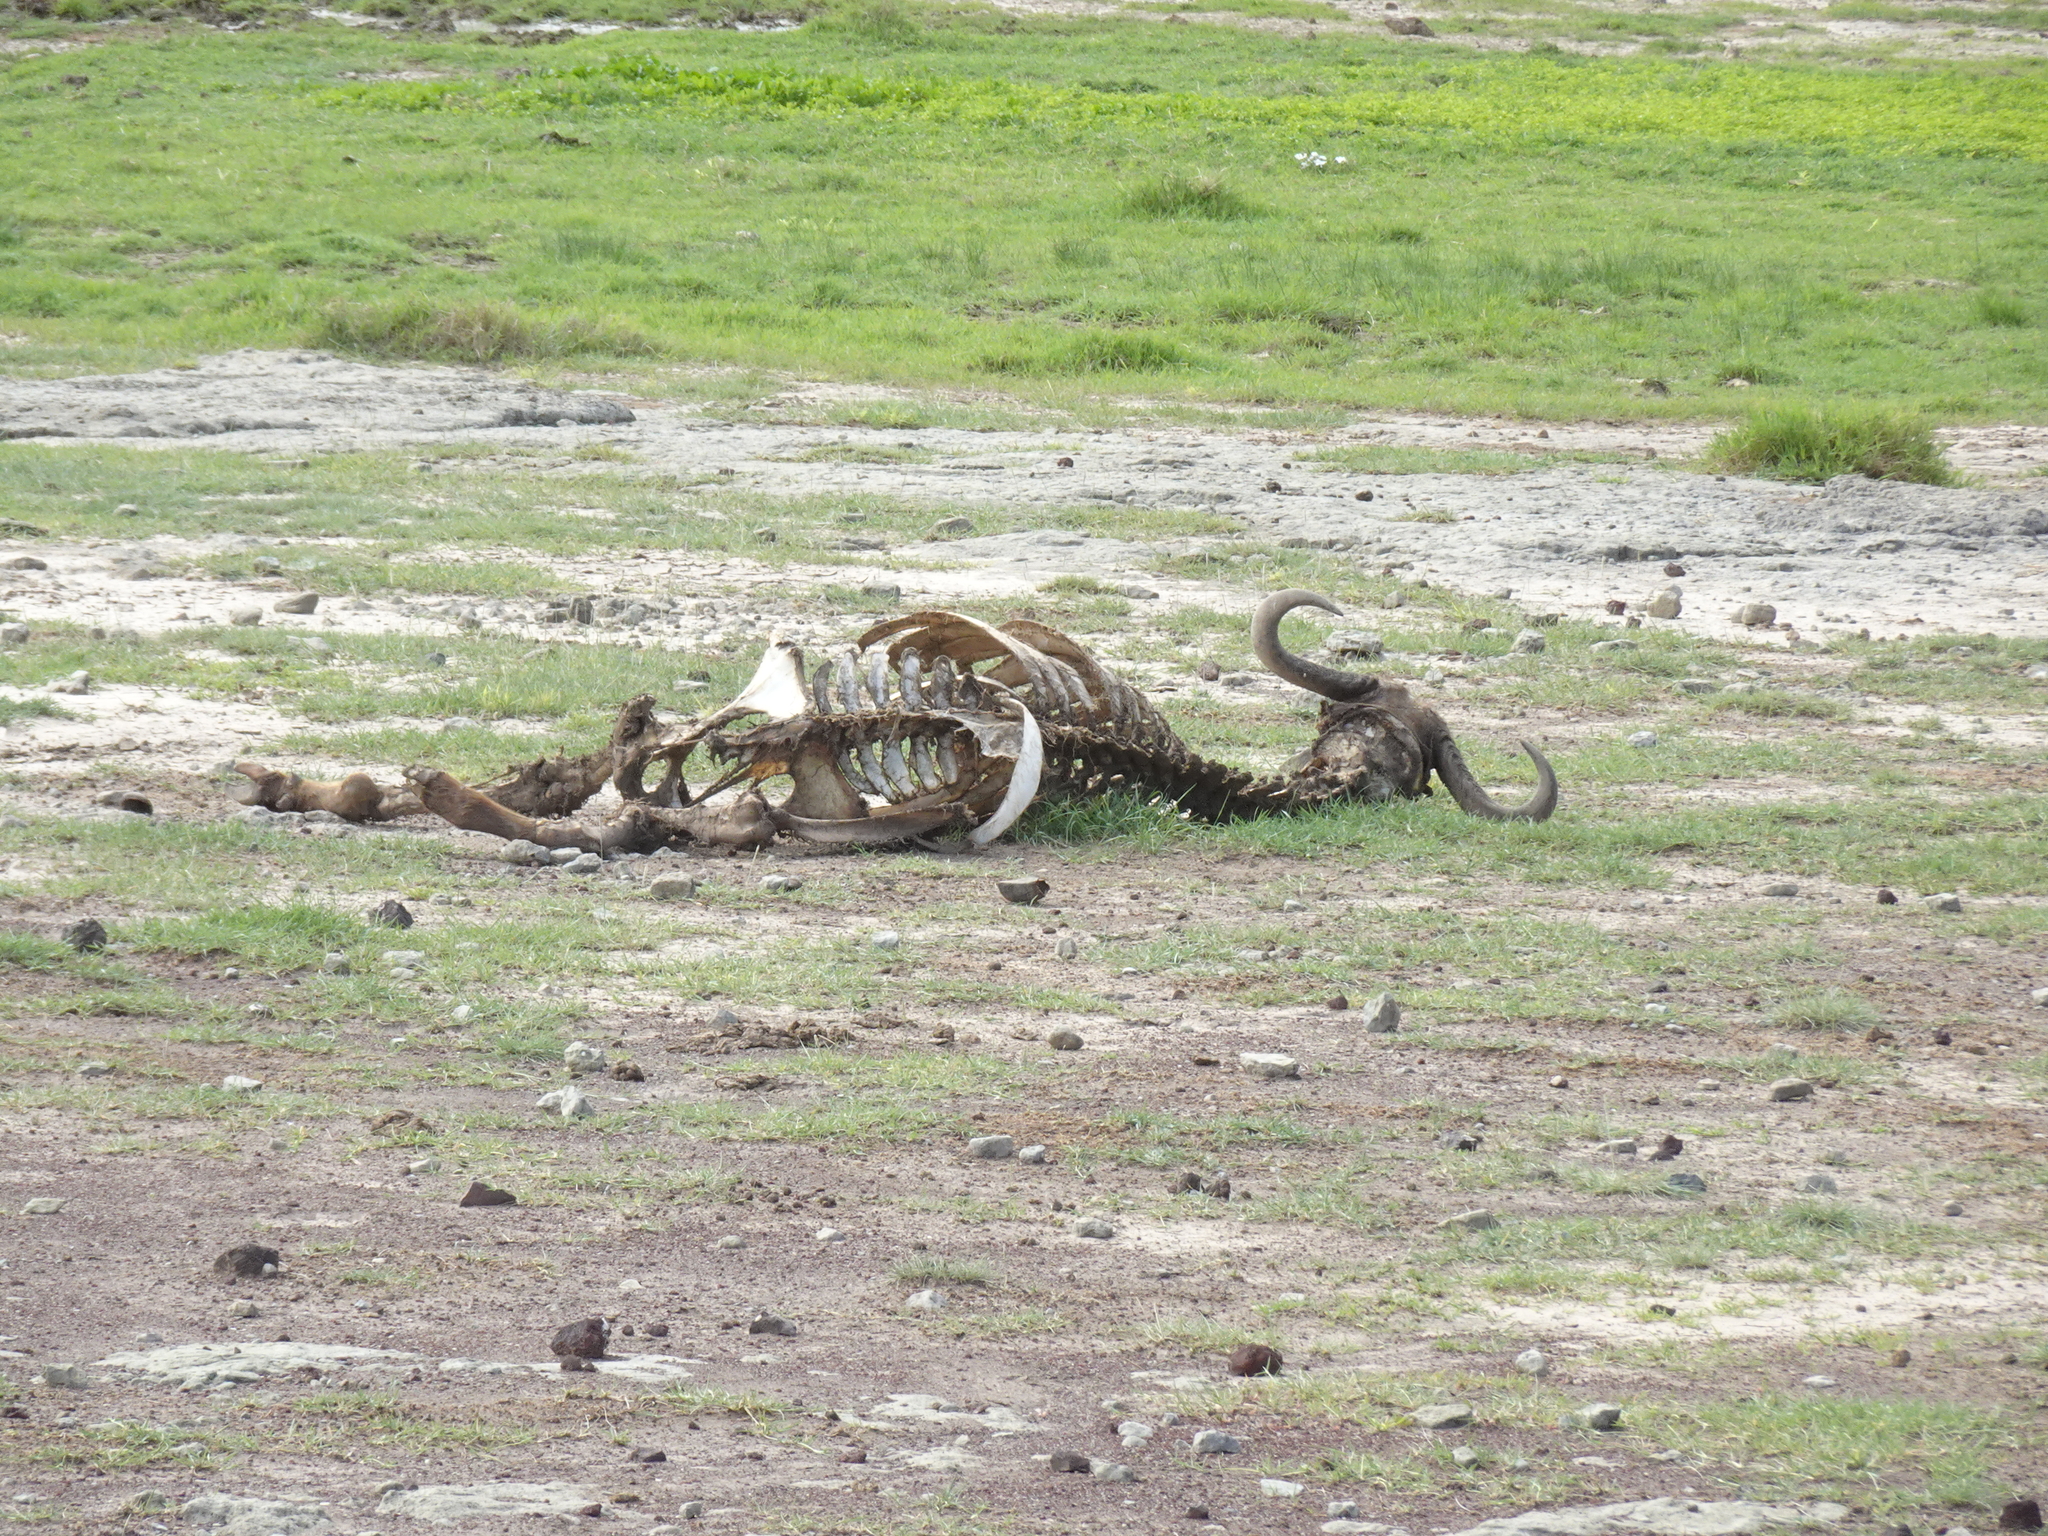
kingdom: Animalia
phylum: Chordata
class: Mammalia
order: Artiodactyla
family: Bovidae
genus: Syncerus
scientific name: Syncerus caffer
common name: African buffalo
